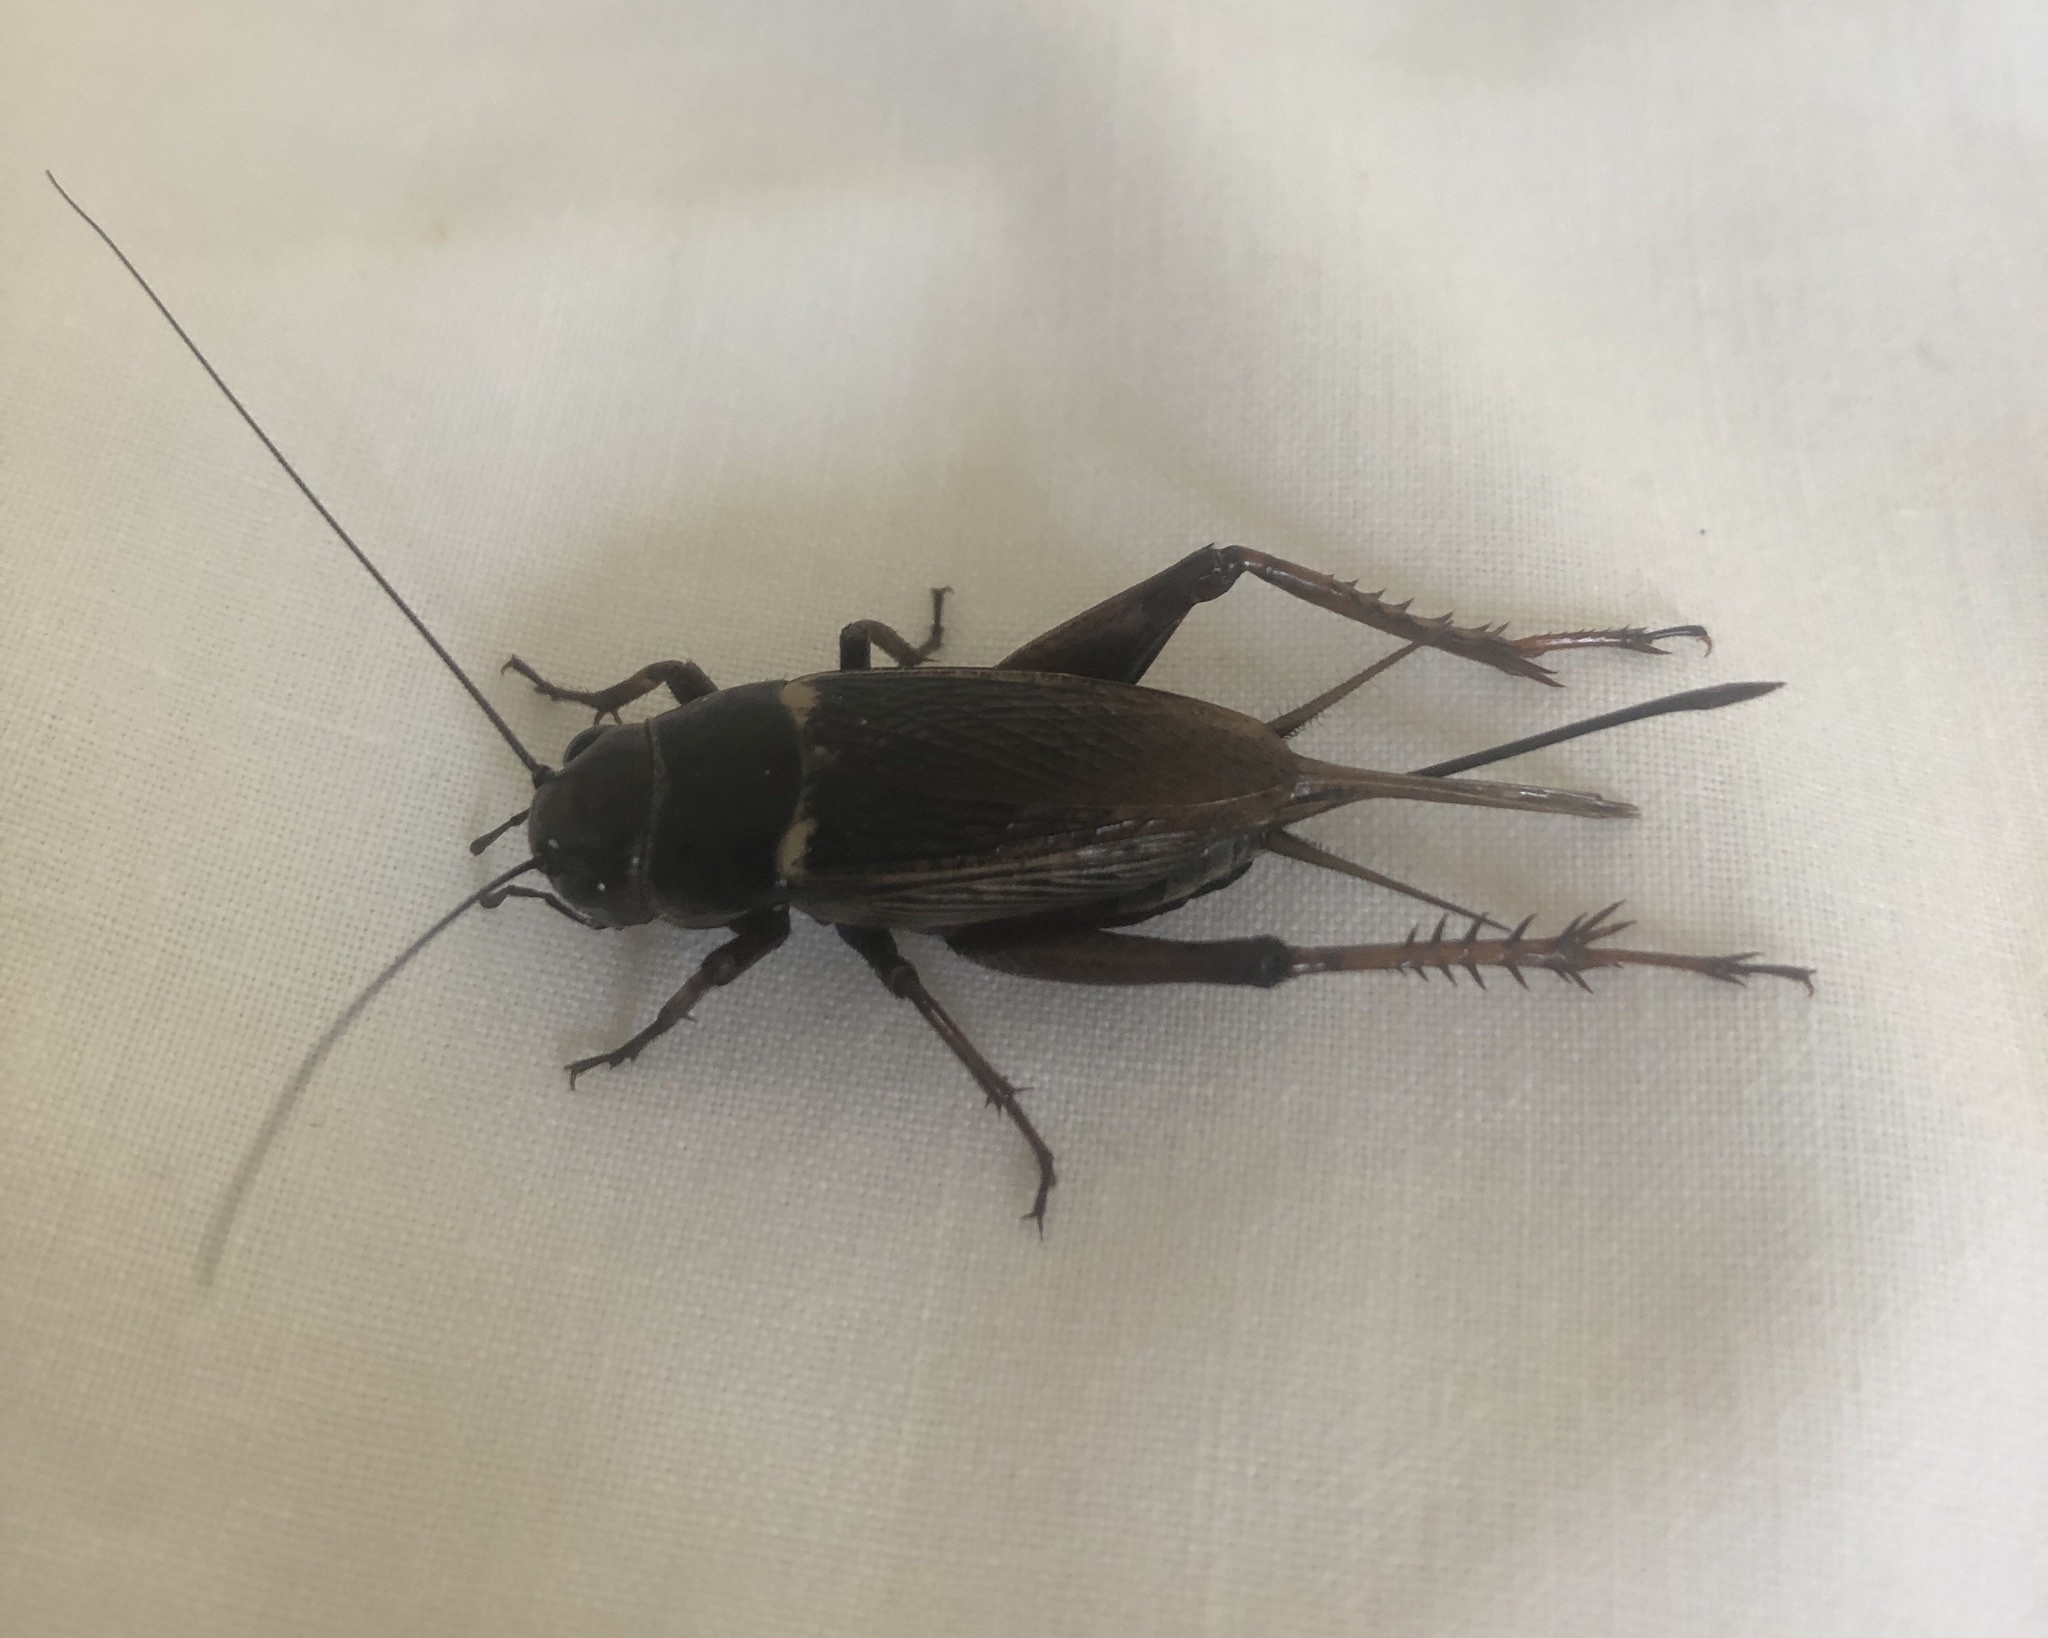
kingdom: Animalia
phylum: Arthropoda
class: Insecta
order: Orthoptera
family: Gryllidae
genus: Gryllus
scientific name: Gryllus bimaculatus
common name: Two-spotted cricket
